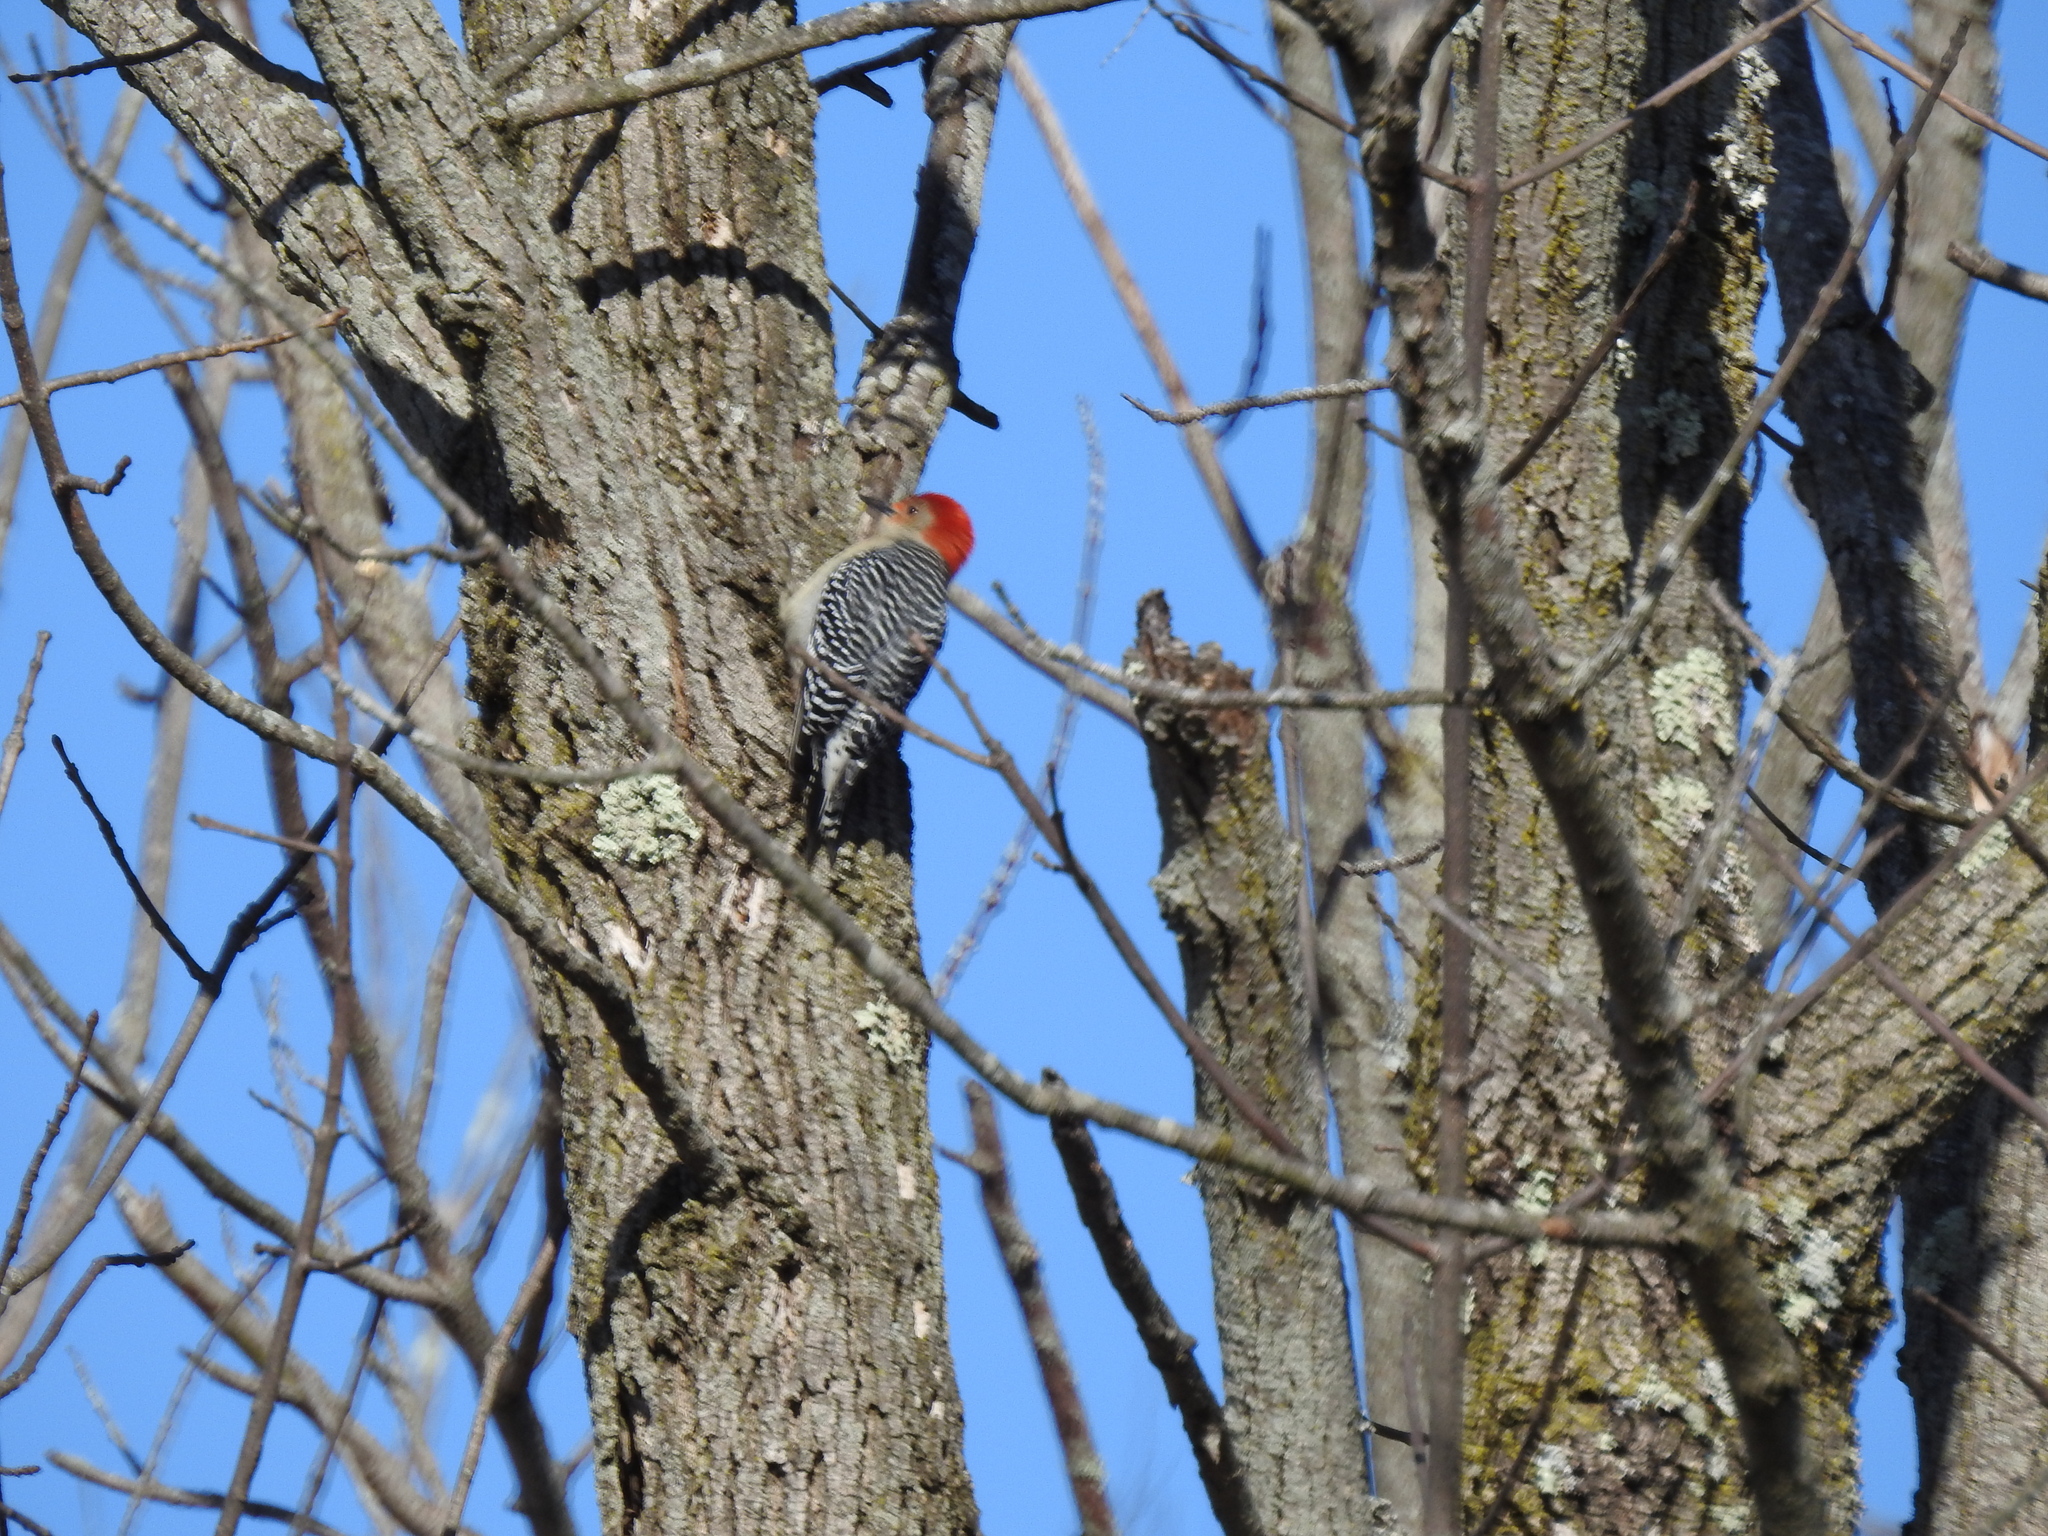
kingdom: Animalia
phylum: Chordata
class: Aves
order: Piciformes
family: Picidae
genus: Melanerpes
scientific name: Melanerpes carolinus
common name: Red-bellied woodpecker
